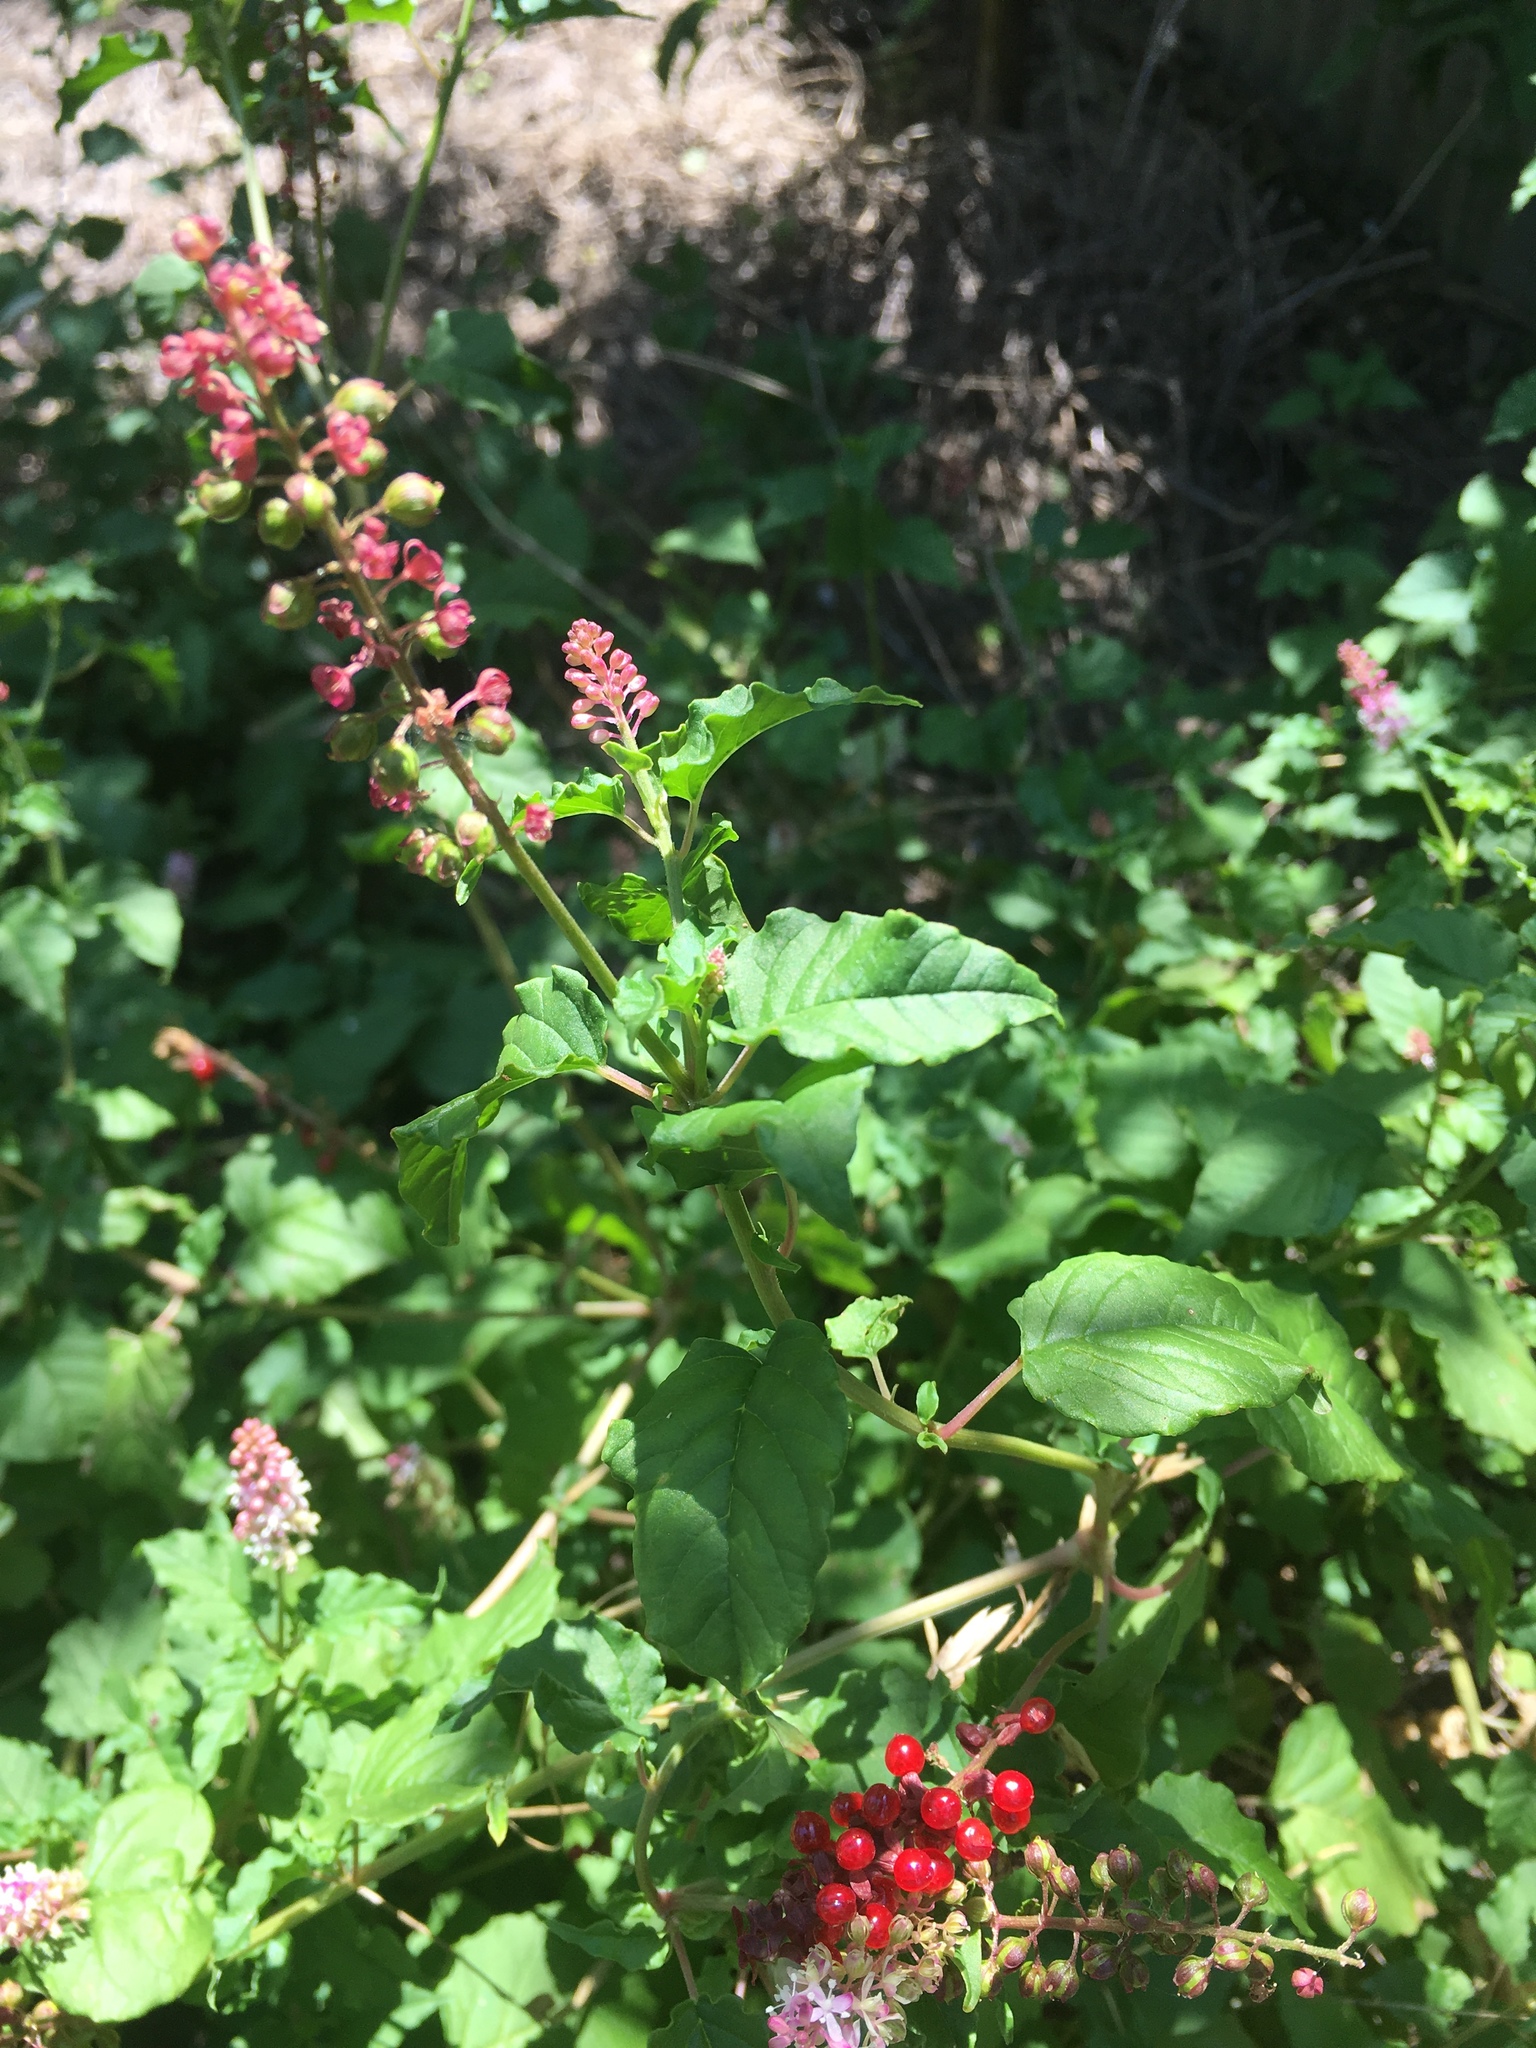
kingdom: Plantae
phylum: Tracheophyta
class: Magnoliopsida
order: Caryophyllales
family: Phytolaccaceae
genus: Rivina
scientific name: Rivina humilis
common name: Rougeplant
